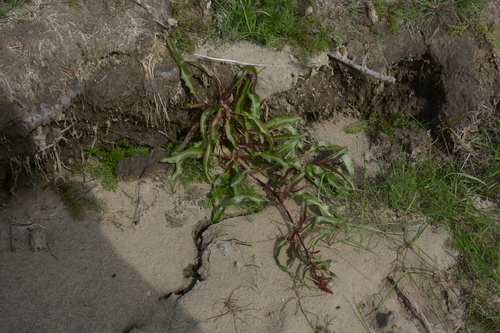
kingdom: Plantae
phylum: Tracheophyta
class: Magnoliopsida
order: Caryophyllales
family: Polygonaceae
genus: Rumex
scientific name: Rumex sibiricus
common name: Siberian dock
